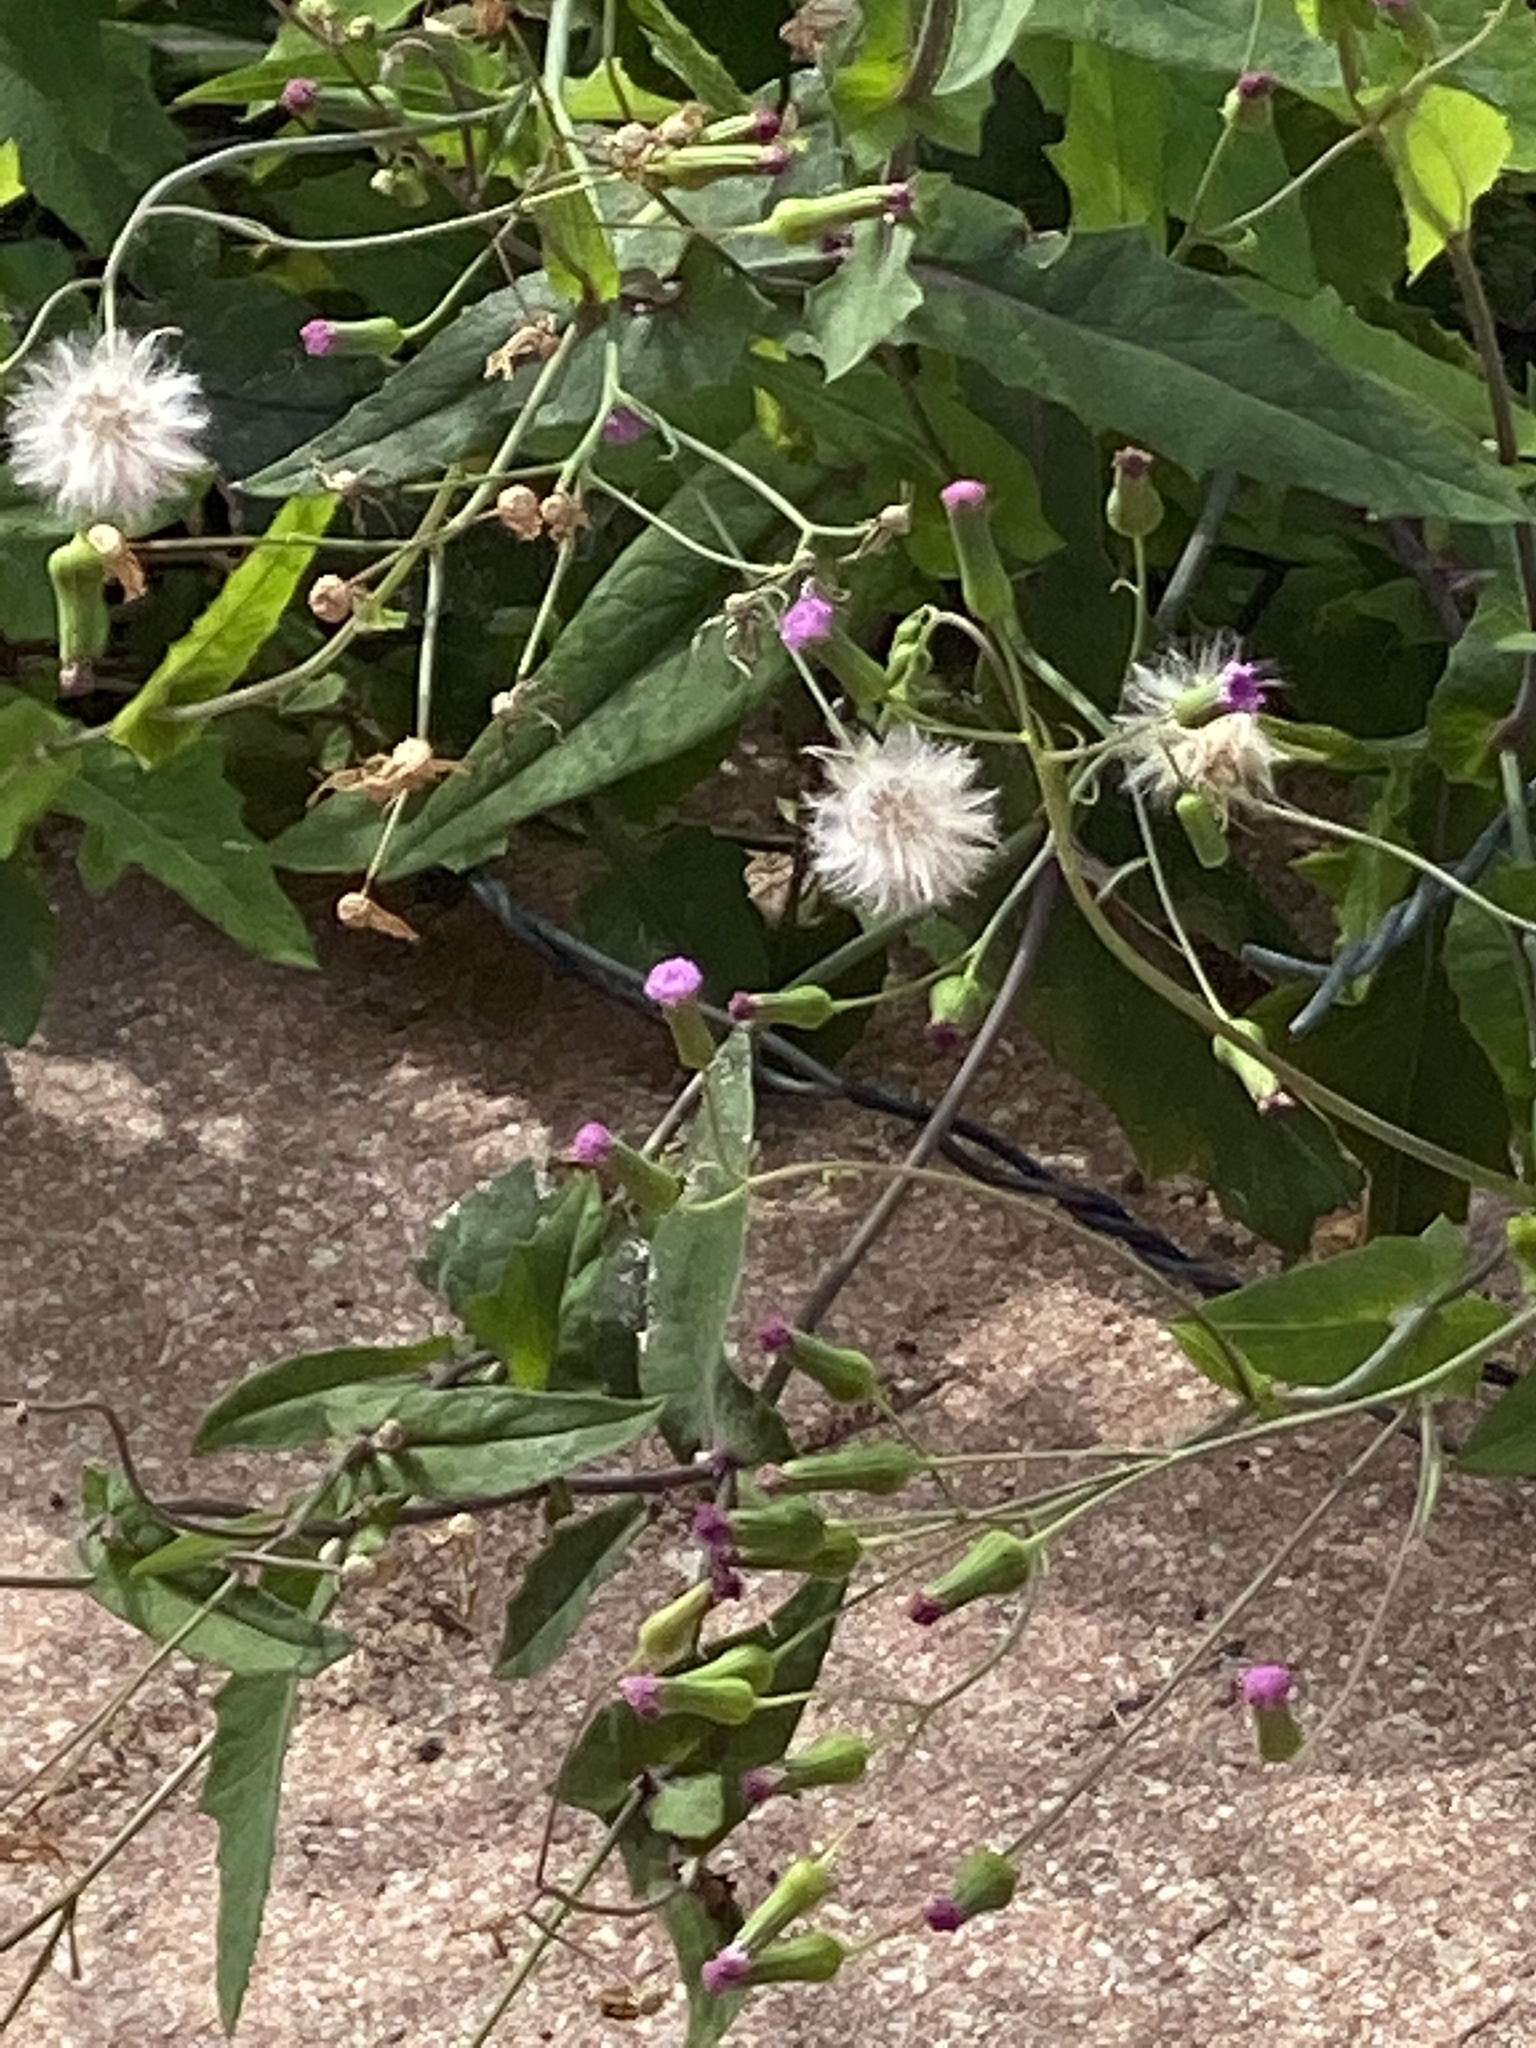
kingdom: Plantae
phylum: Tracheophyta
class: Magnoliopsida
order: Asterales
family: Asteraceae
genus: Emilia
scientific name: Emilia sonchifolia
